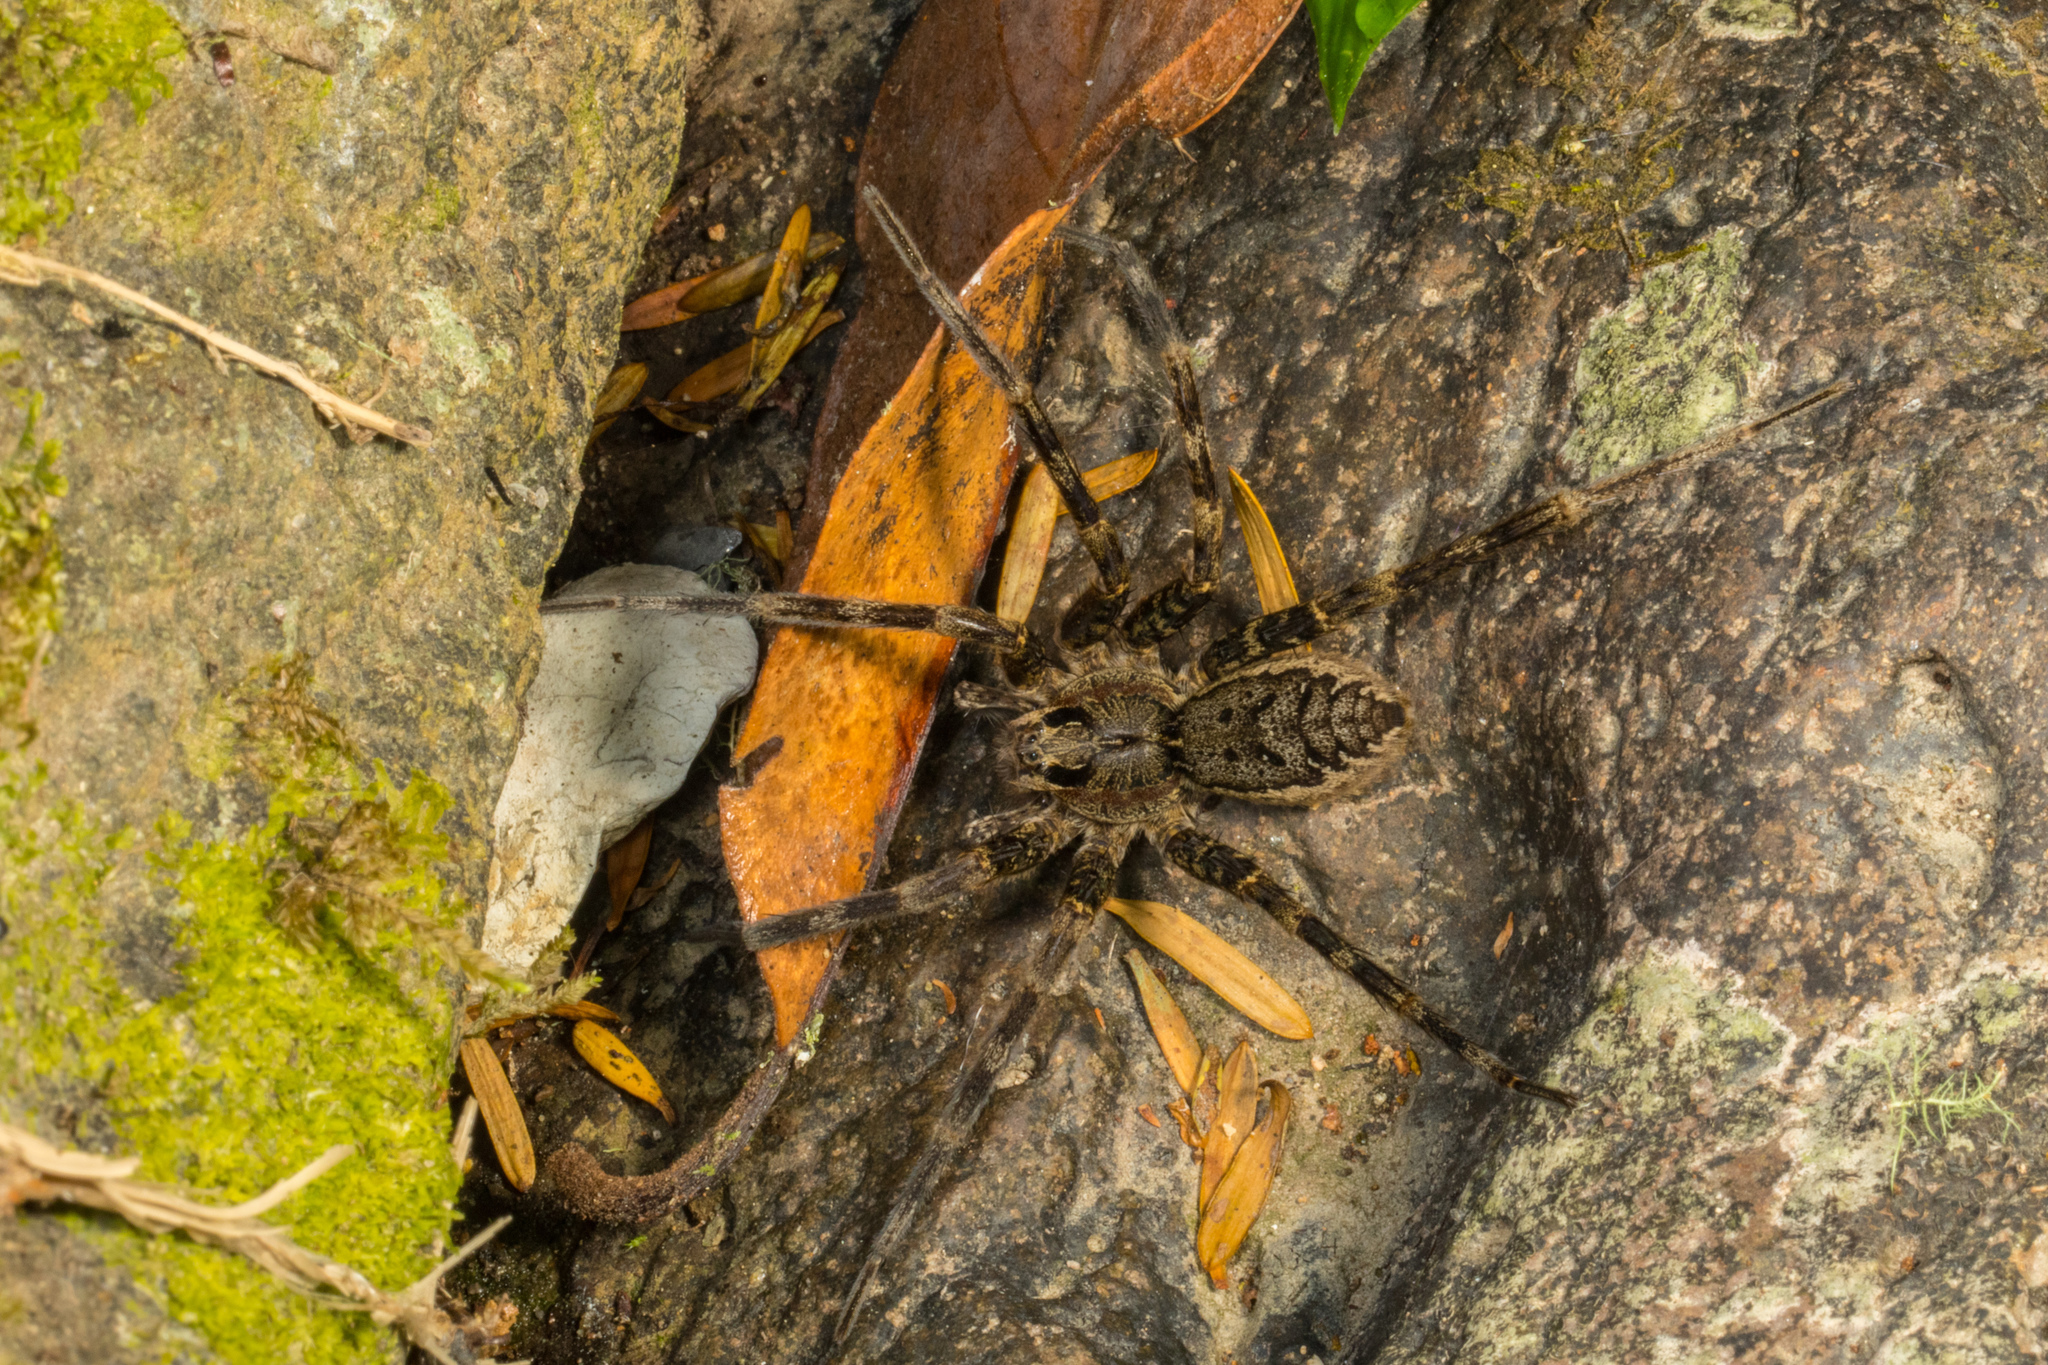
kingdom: Animalia
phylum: Arthropoda
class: Arachnida
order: Araneae
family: Pisauridae
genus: Dolomedes
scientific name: Dolomedes dondalei
